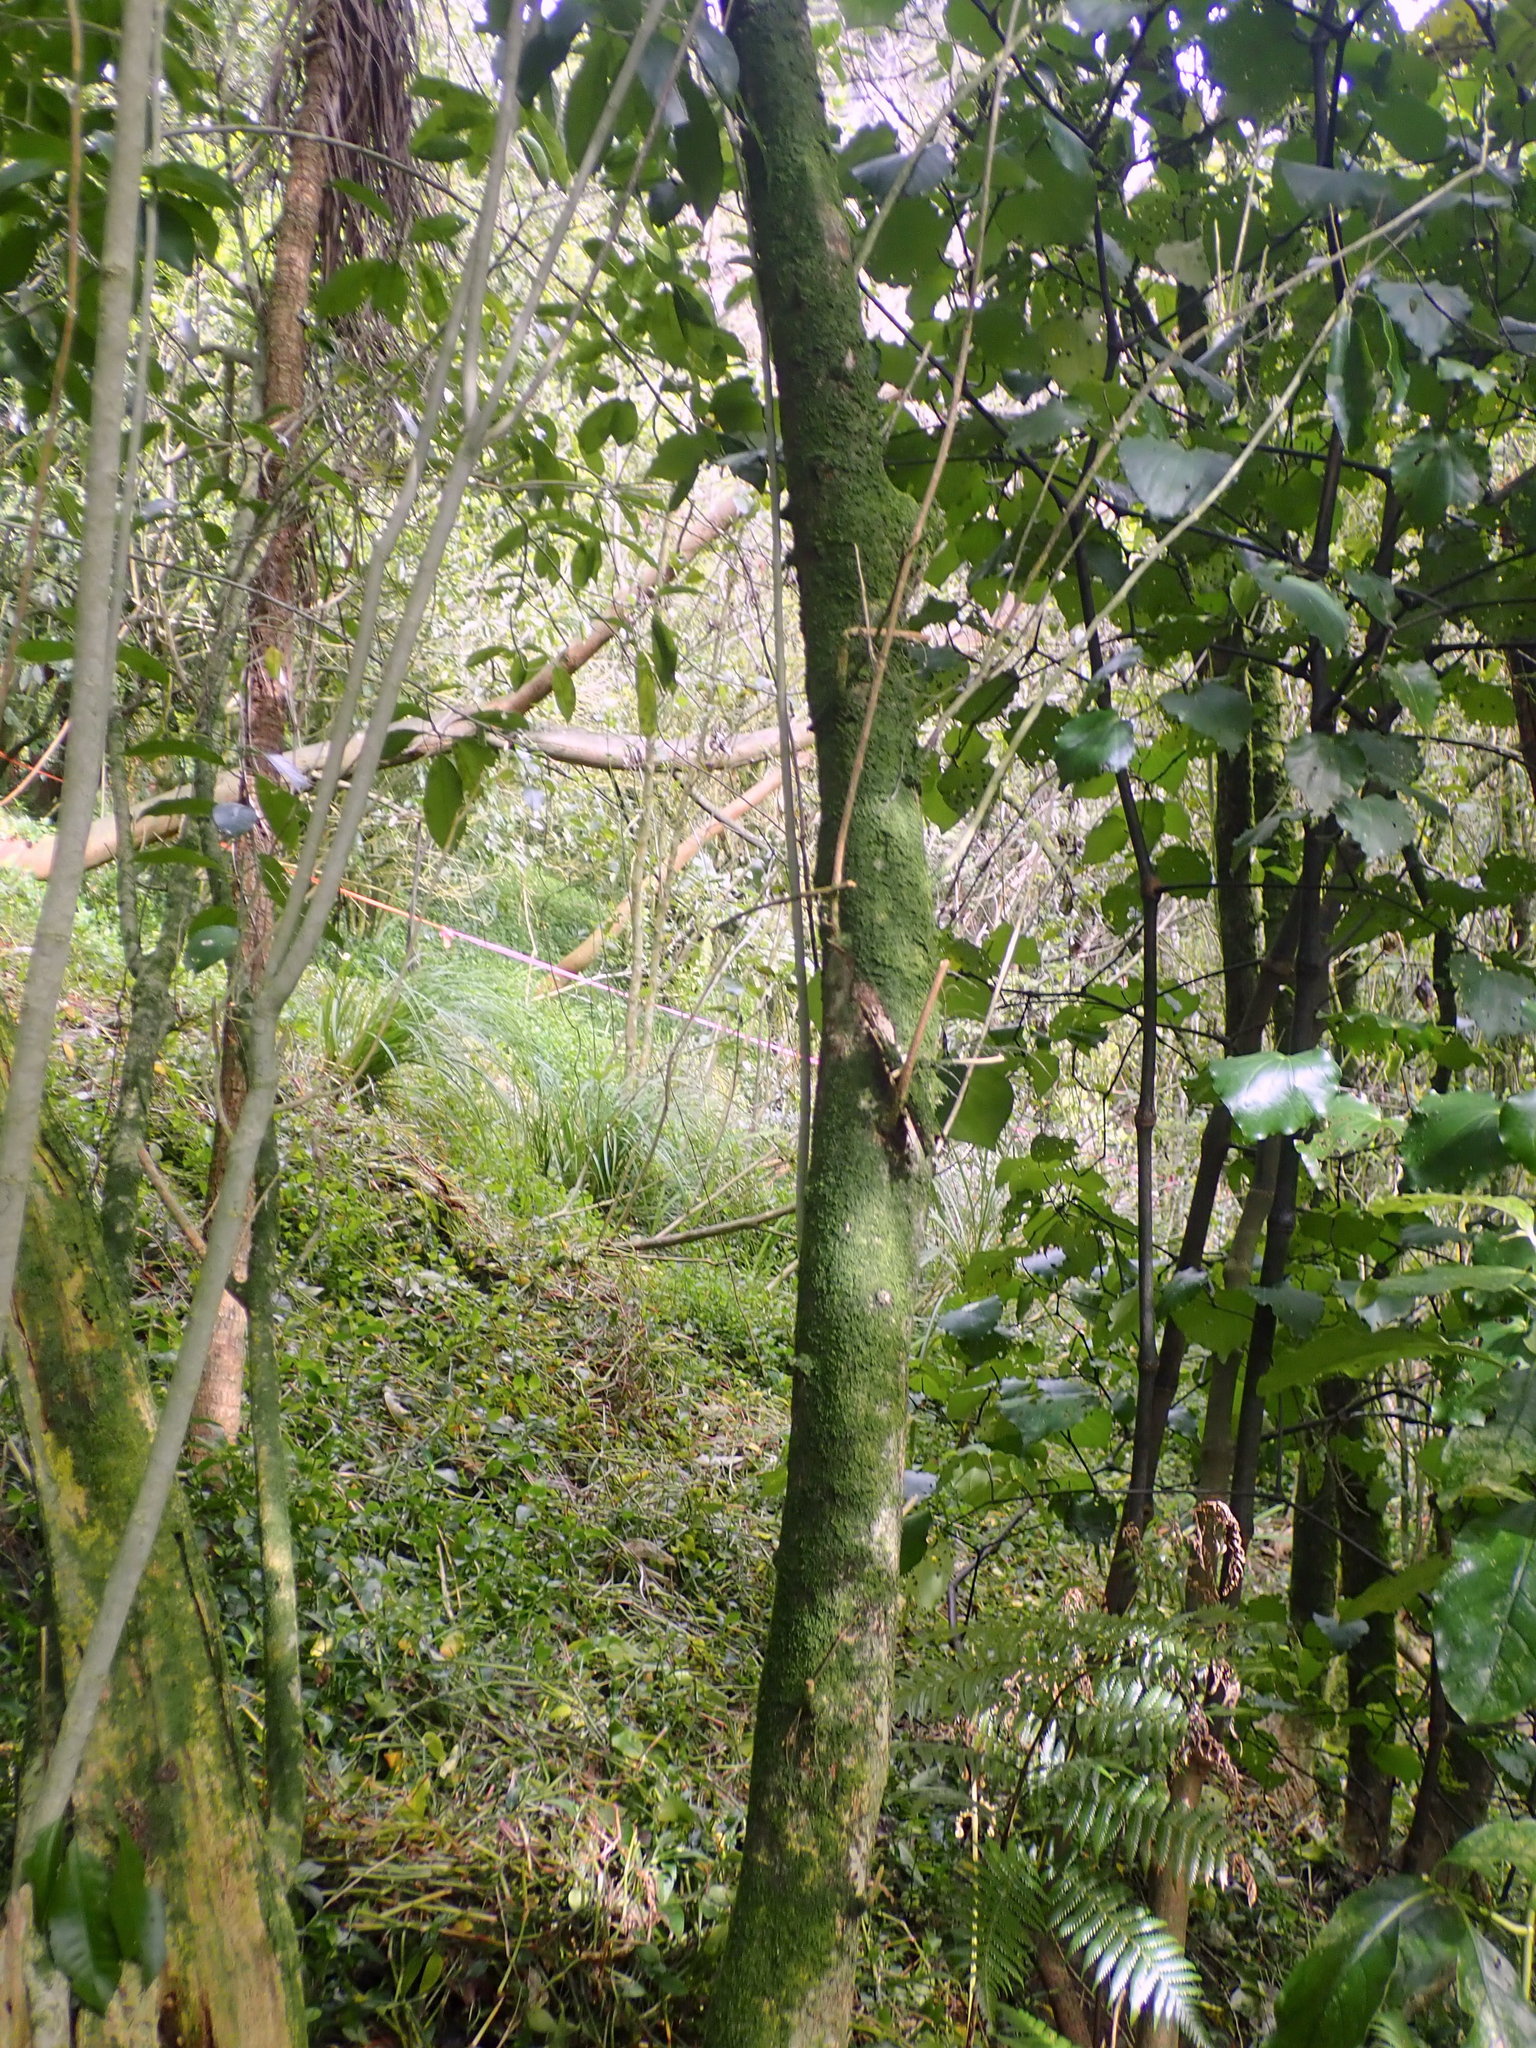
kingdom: Plantae
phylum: Tracheophyta
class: Magnoliopsida
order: Piperales
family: Piperaceae
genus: Macropiper
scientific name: Macropiper excelsum
